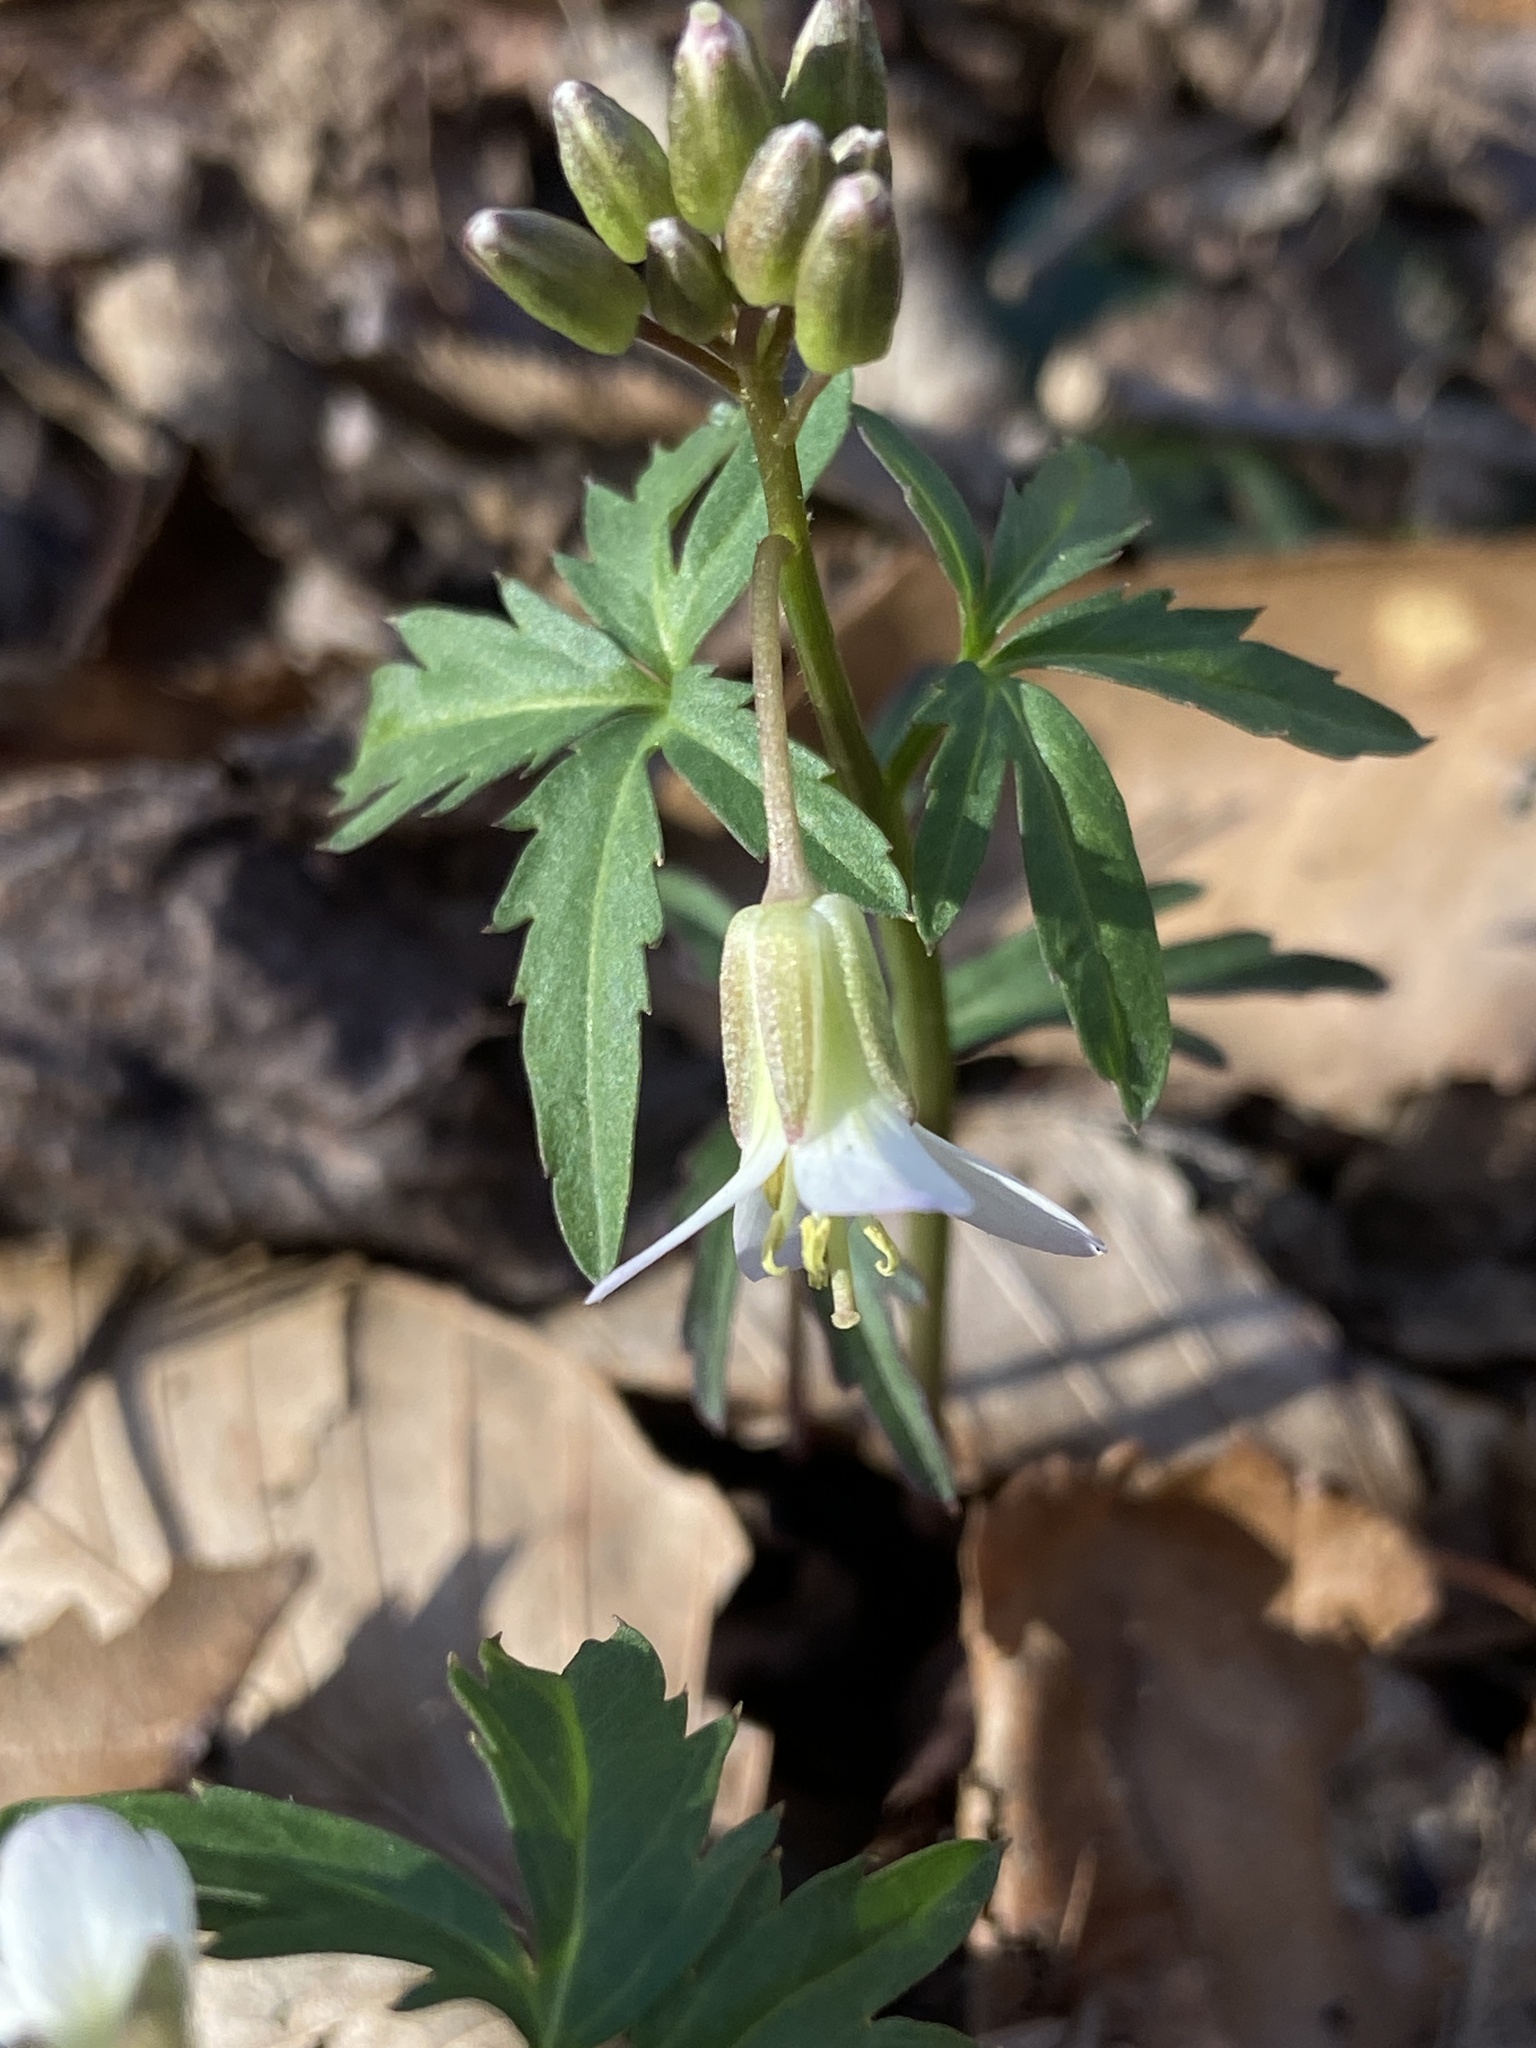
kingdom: Plantae
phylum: Tracheophyta
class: Magnoliopsida
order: Brassicales
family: Brassicaceae
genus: Cardamine
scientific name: Cardamine concatenata
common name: Cut-leaf toothcup
